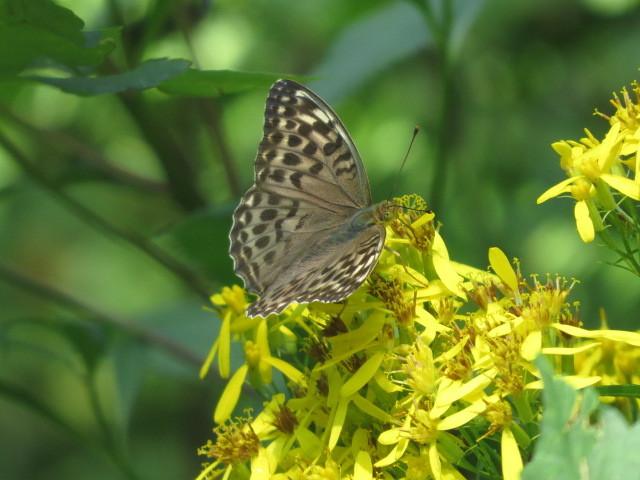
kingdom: Animalia
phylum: Arthropoda
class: Insecta
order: Lepidoptera
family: Nymphalidae
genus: Argynnis
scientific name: Argynnis paphia
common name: Silver-washed fritillary
